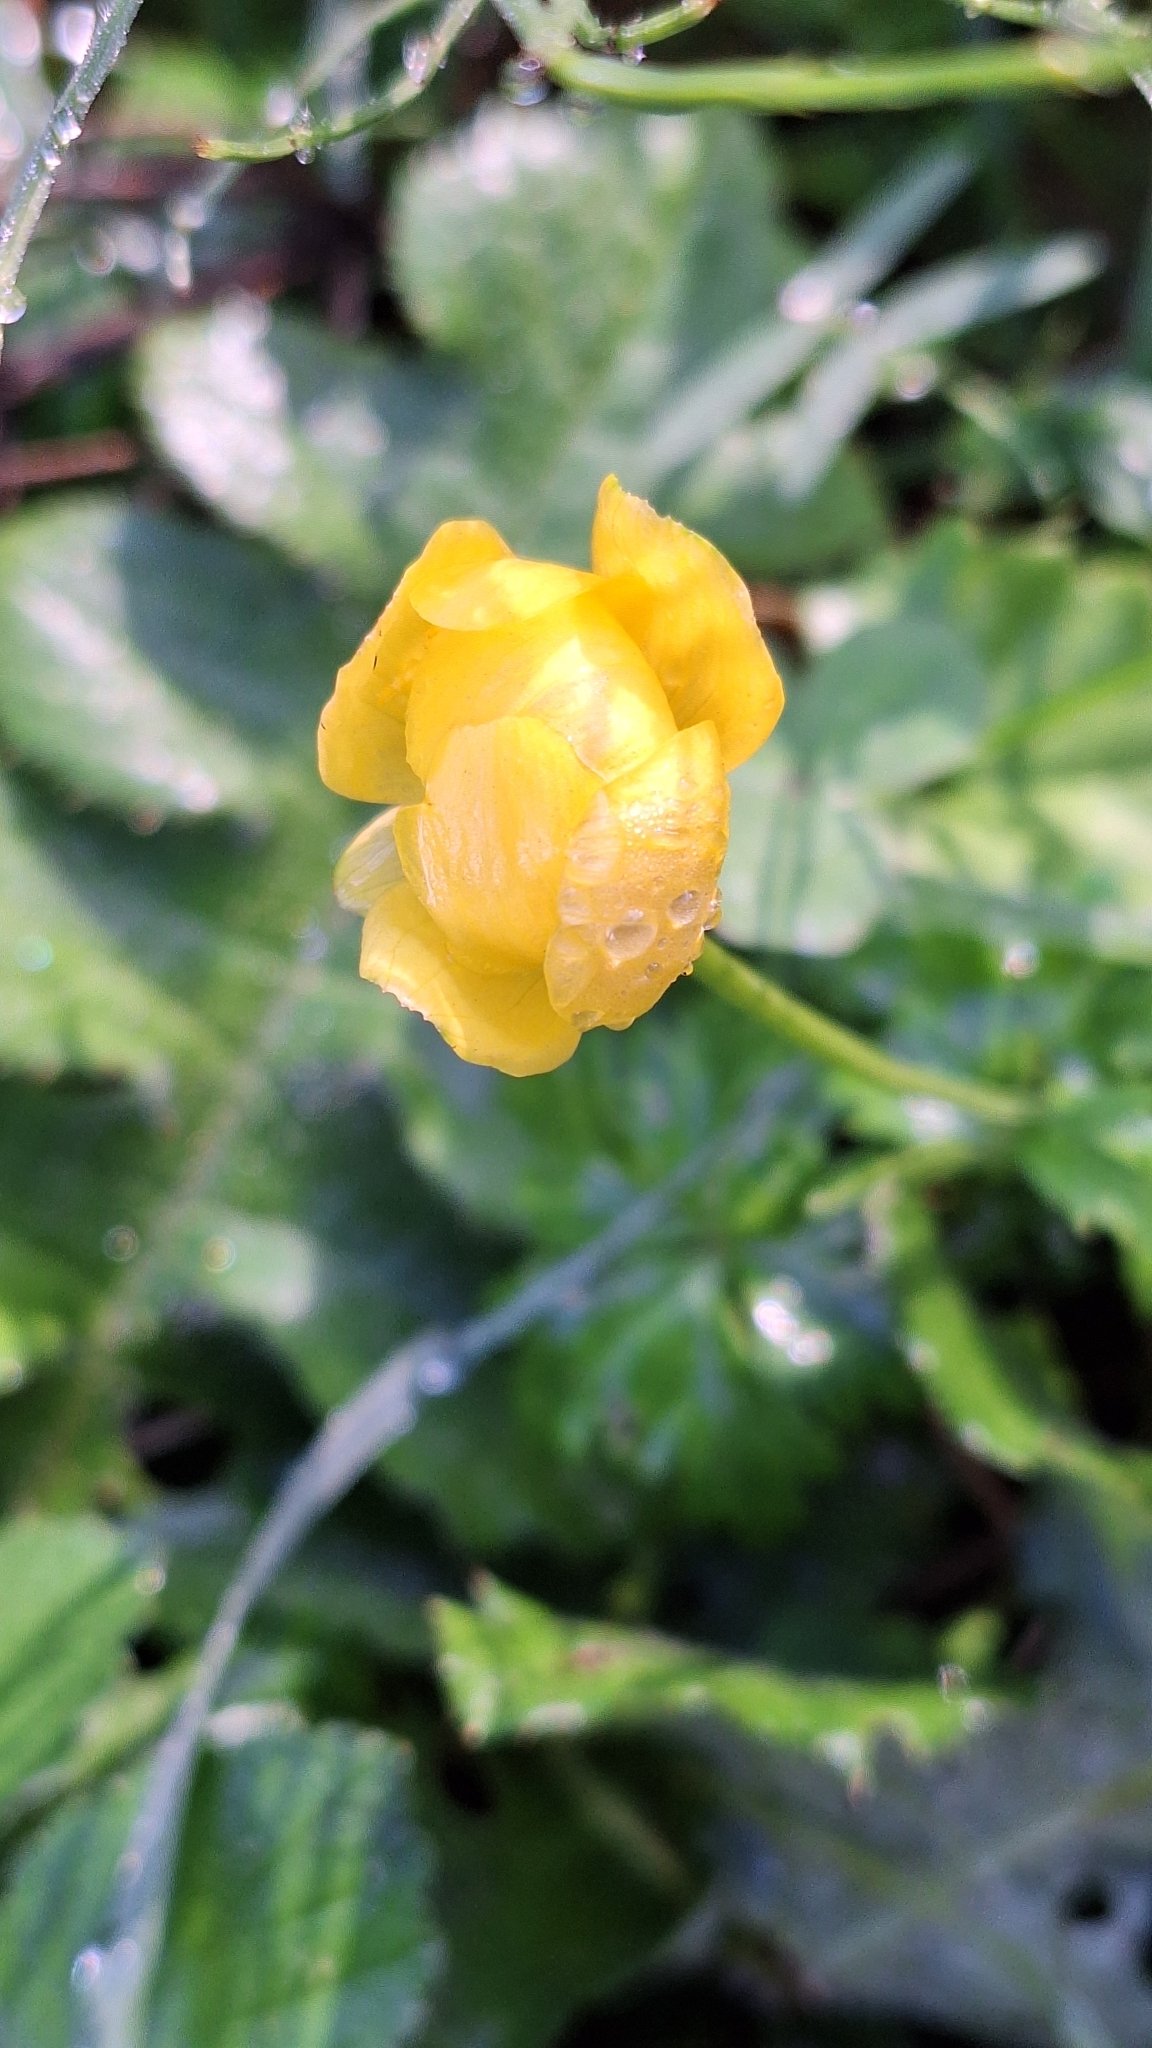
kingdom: Plantae
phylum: Tracheophyta
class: Magnoliopsida
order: Ranunculales
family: Ranunculaceae
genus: Trollius
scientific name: Trollius europaeus
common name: European globeflower
